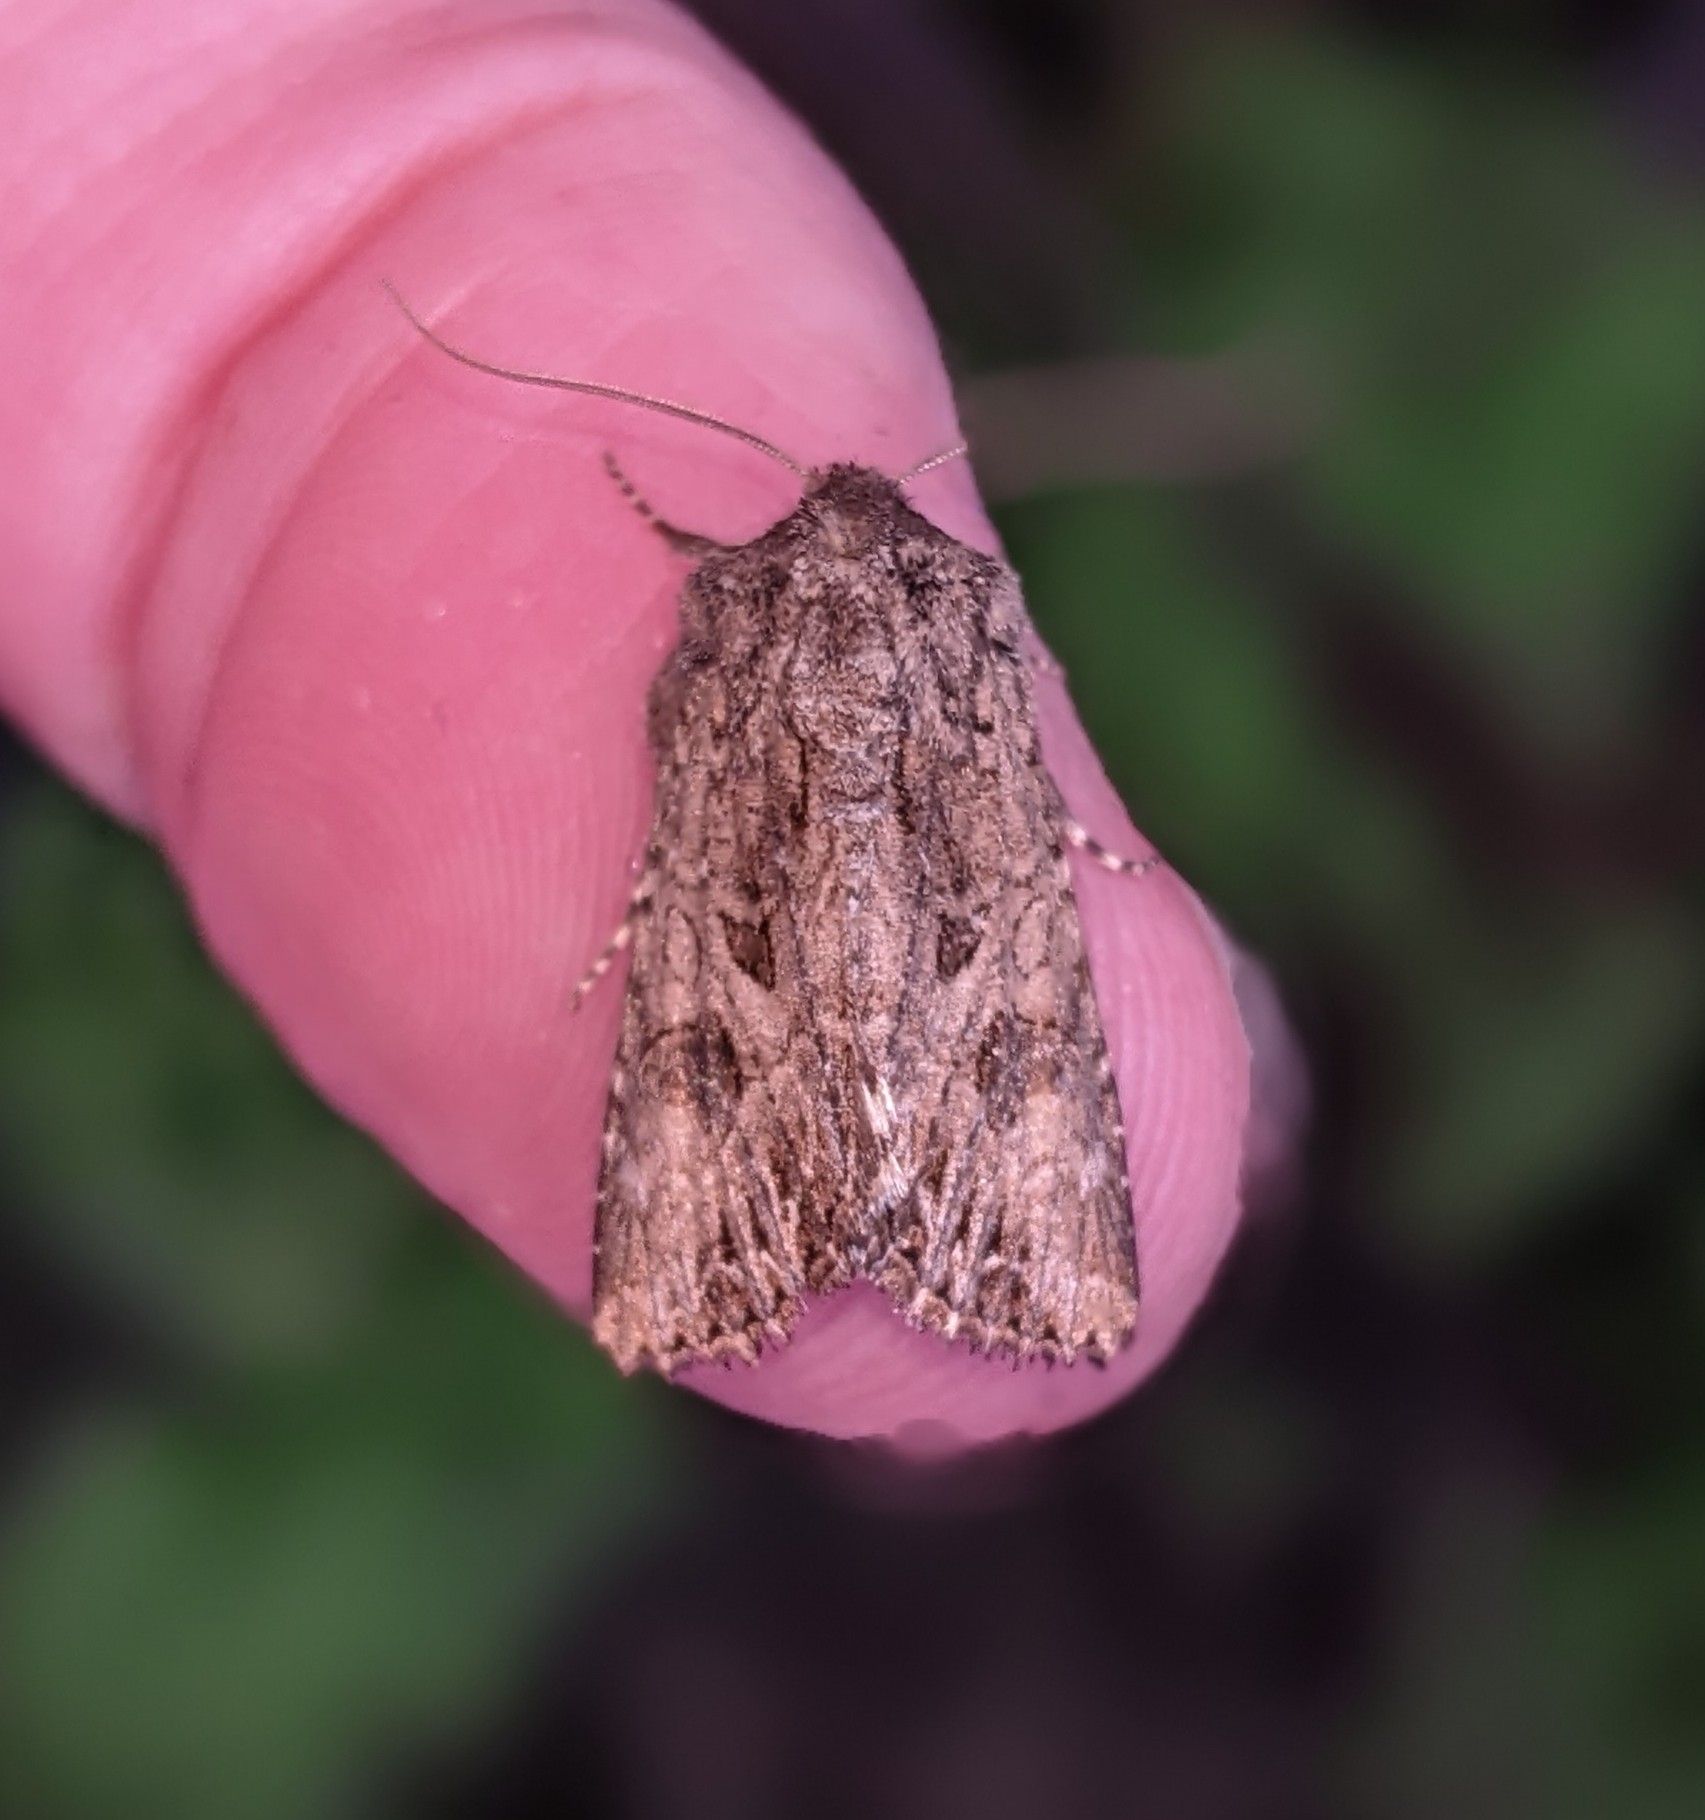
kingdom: Animalia
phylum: Arthropoda
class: Insecta
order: Lepidoptera
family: Noctuidae
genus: Anarta
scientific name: Anarta trifolii
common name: Clover cutworm moth
